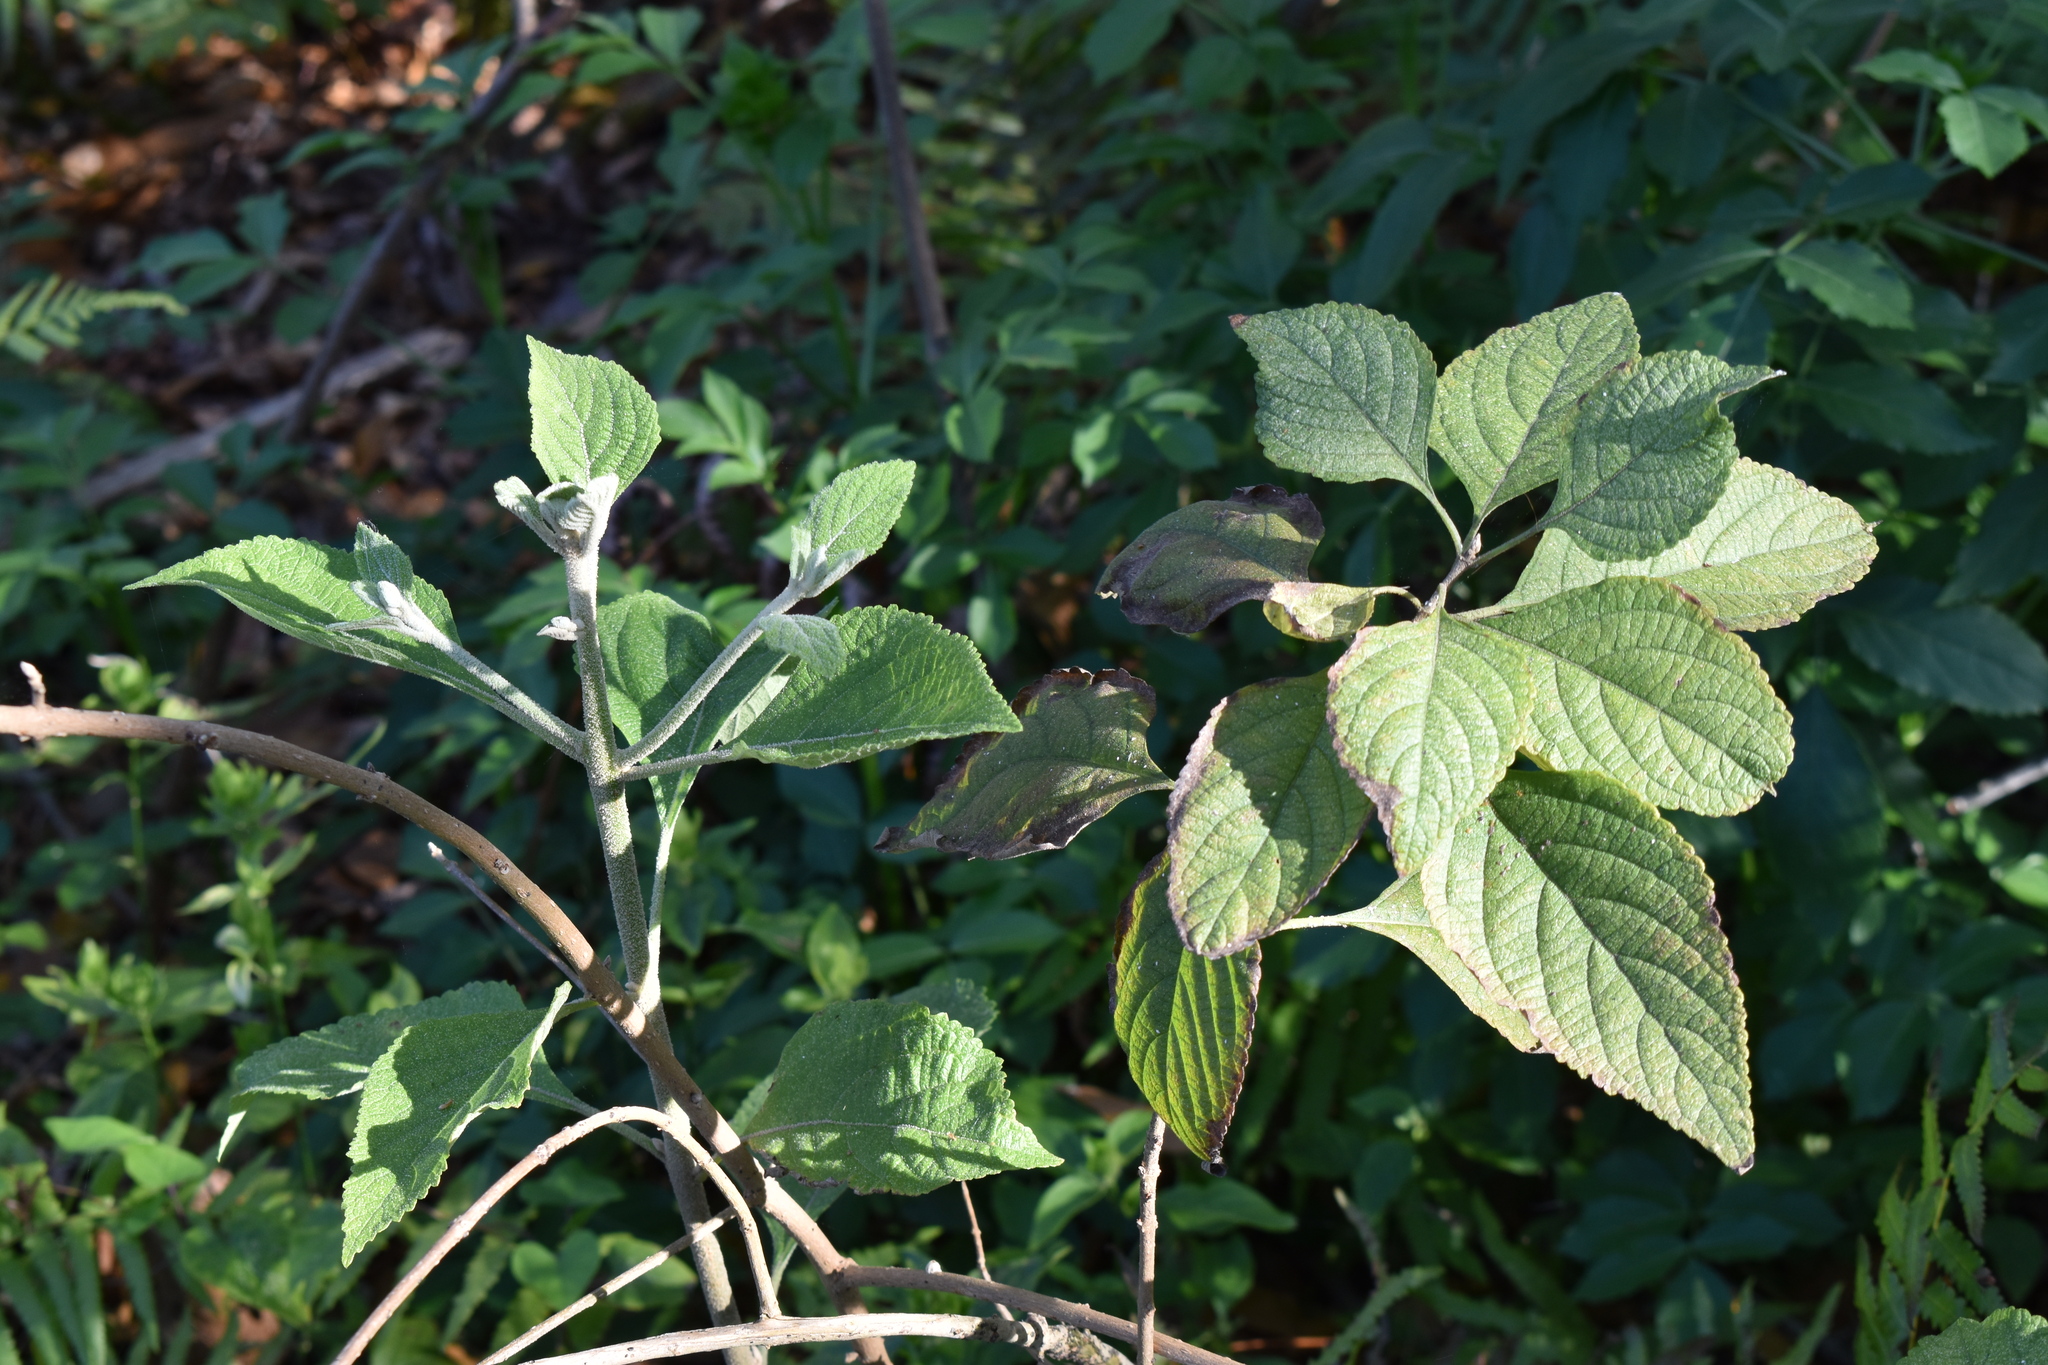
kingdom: Plantae
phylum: Tracheophyta
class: Magnoliopsida
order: Lamiales
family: Lamiaceae
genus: Callicarpa
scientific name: Callicarpa americana
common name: American beautyberry
